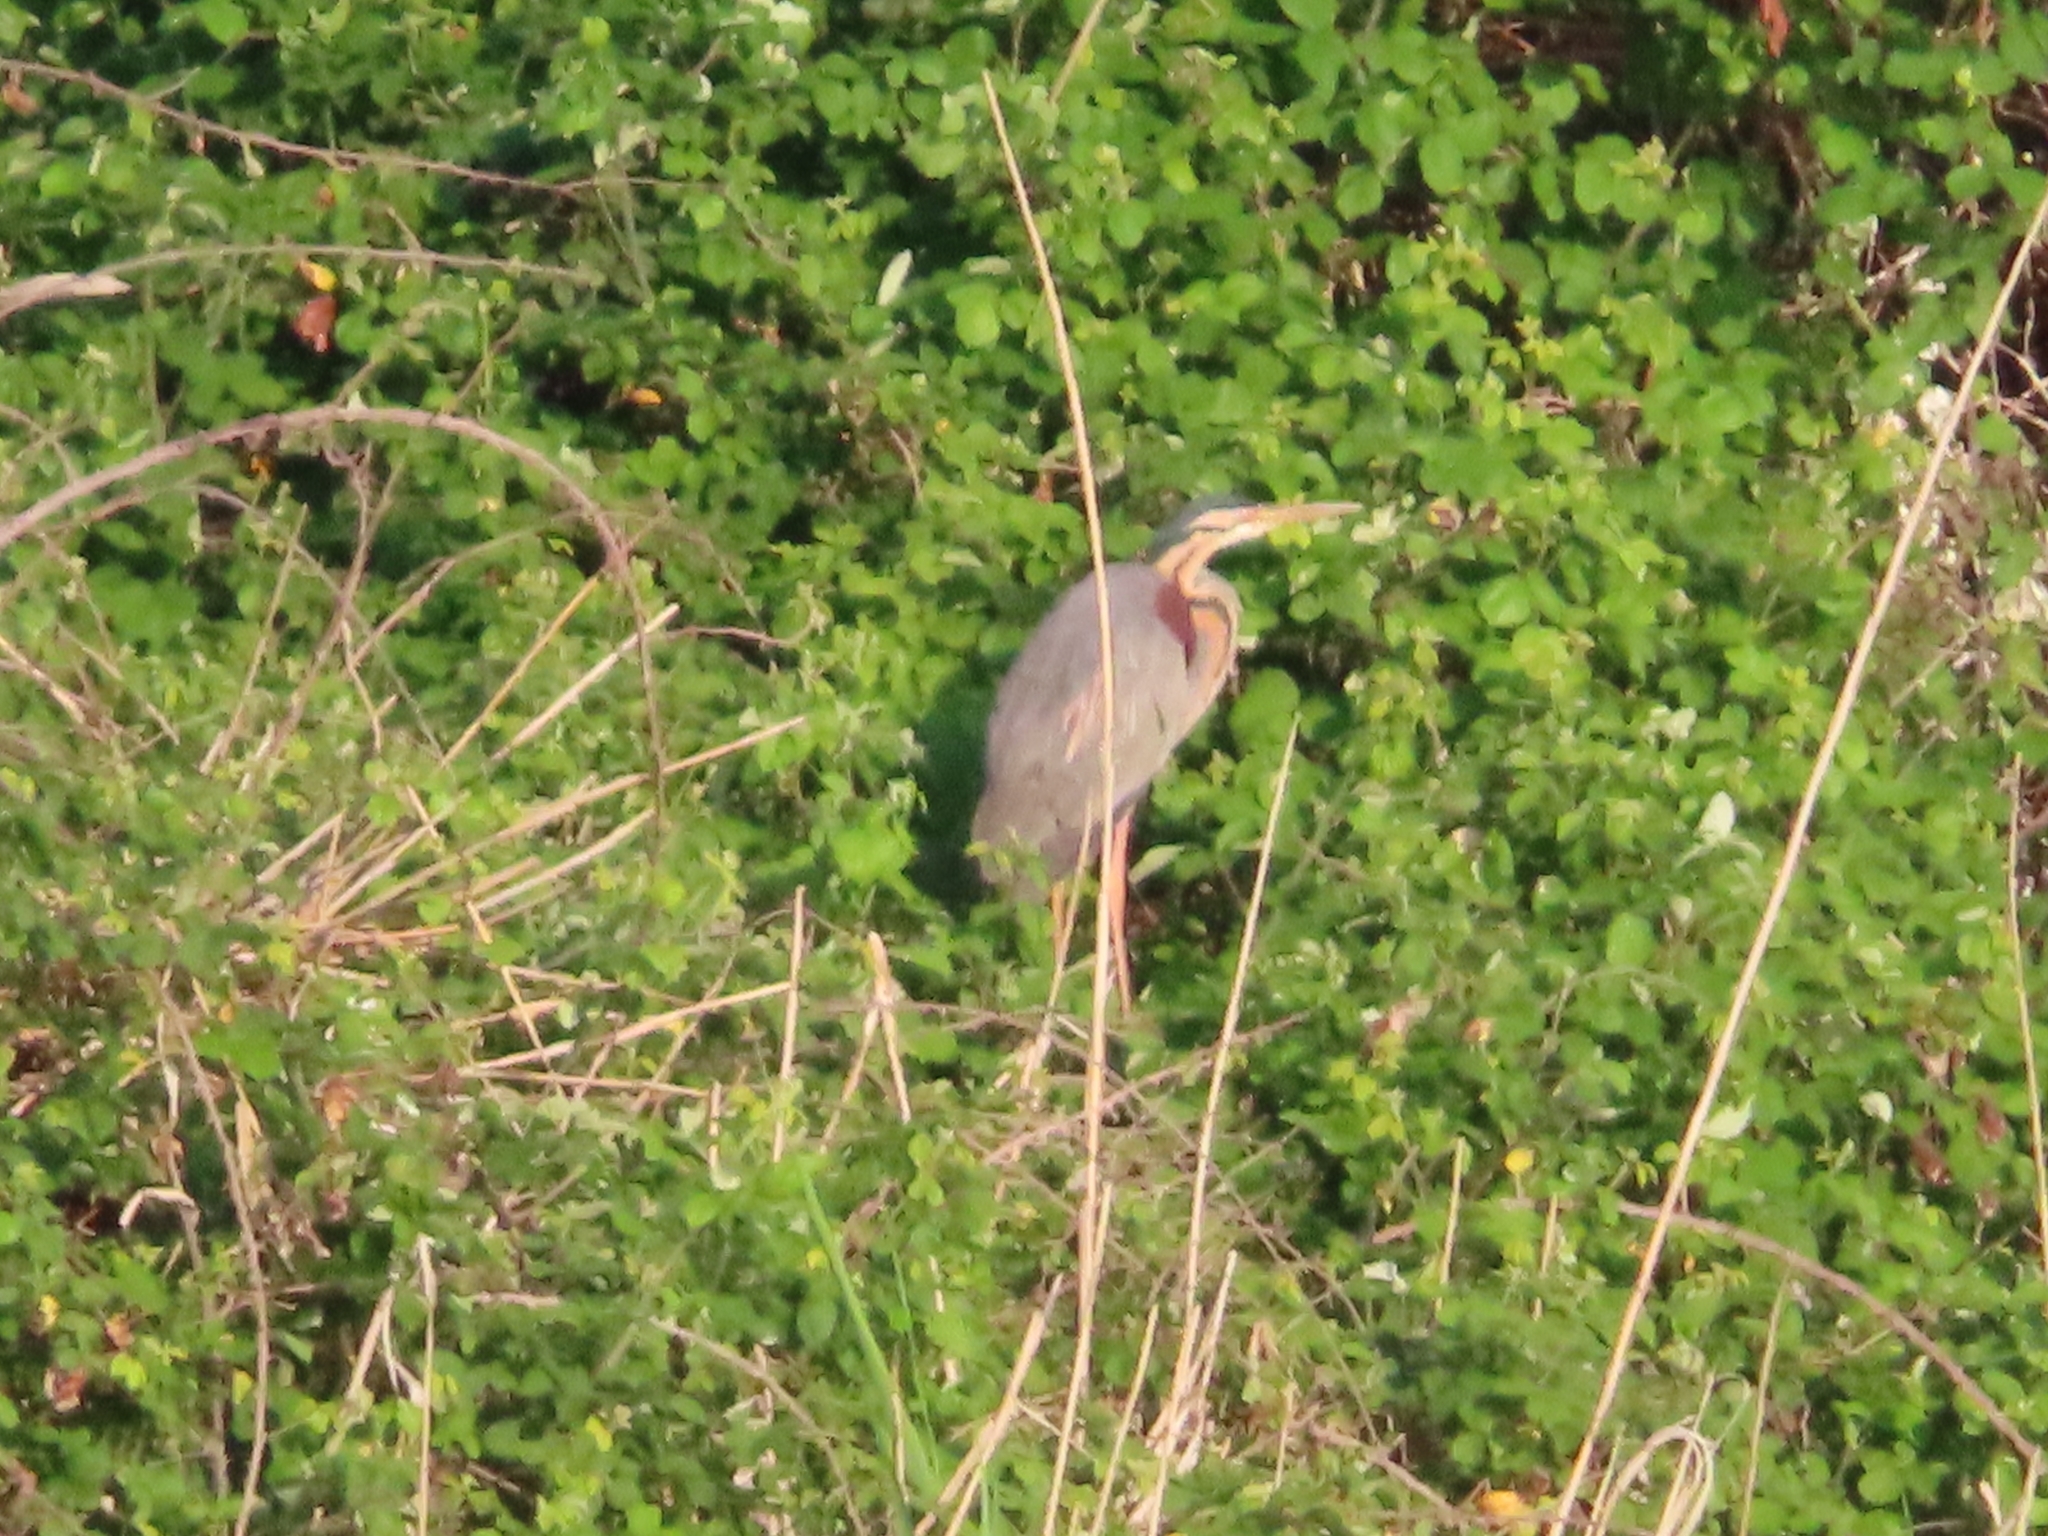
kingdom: Animalia
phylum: Chordata
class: Aves
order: Pelecaniformes
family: Ardeidae
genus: Ardea
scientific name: Ardea purpurea
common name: Purple heron
